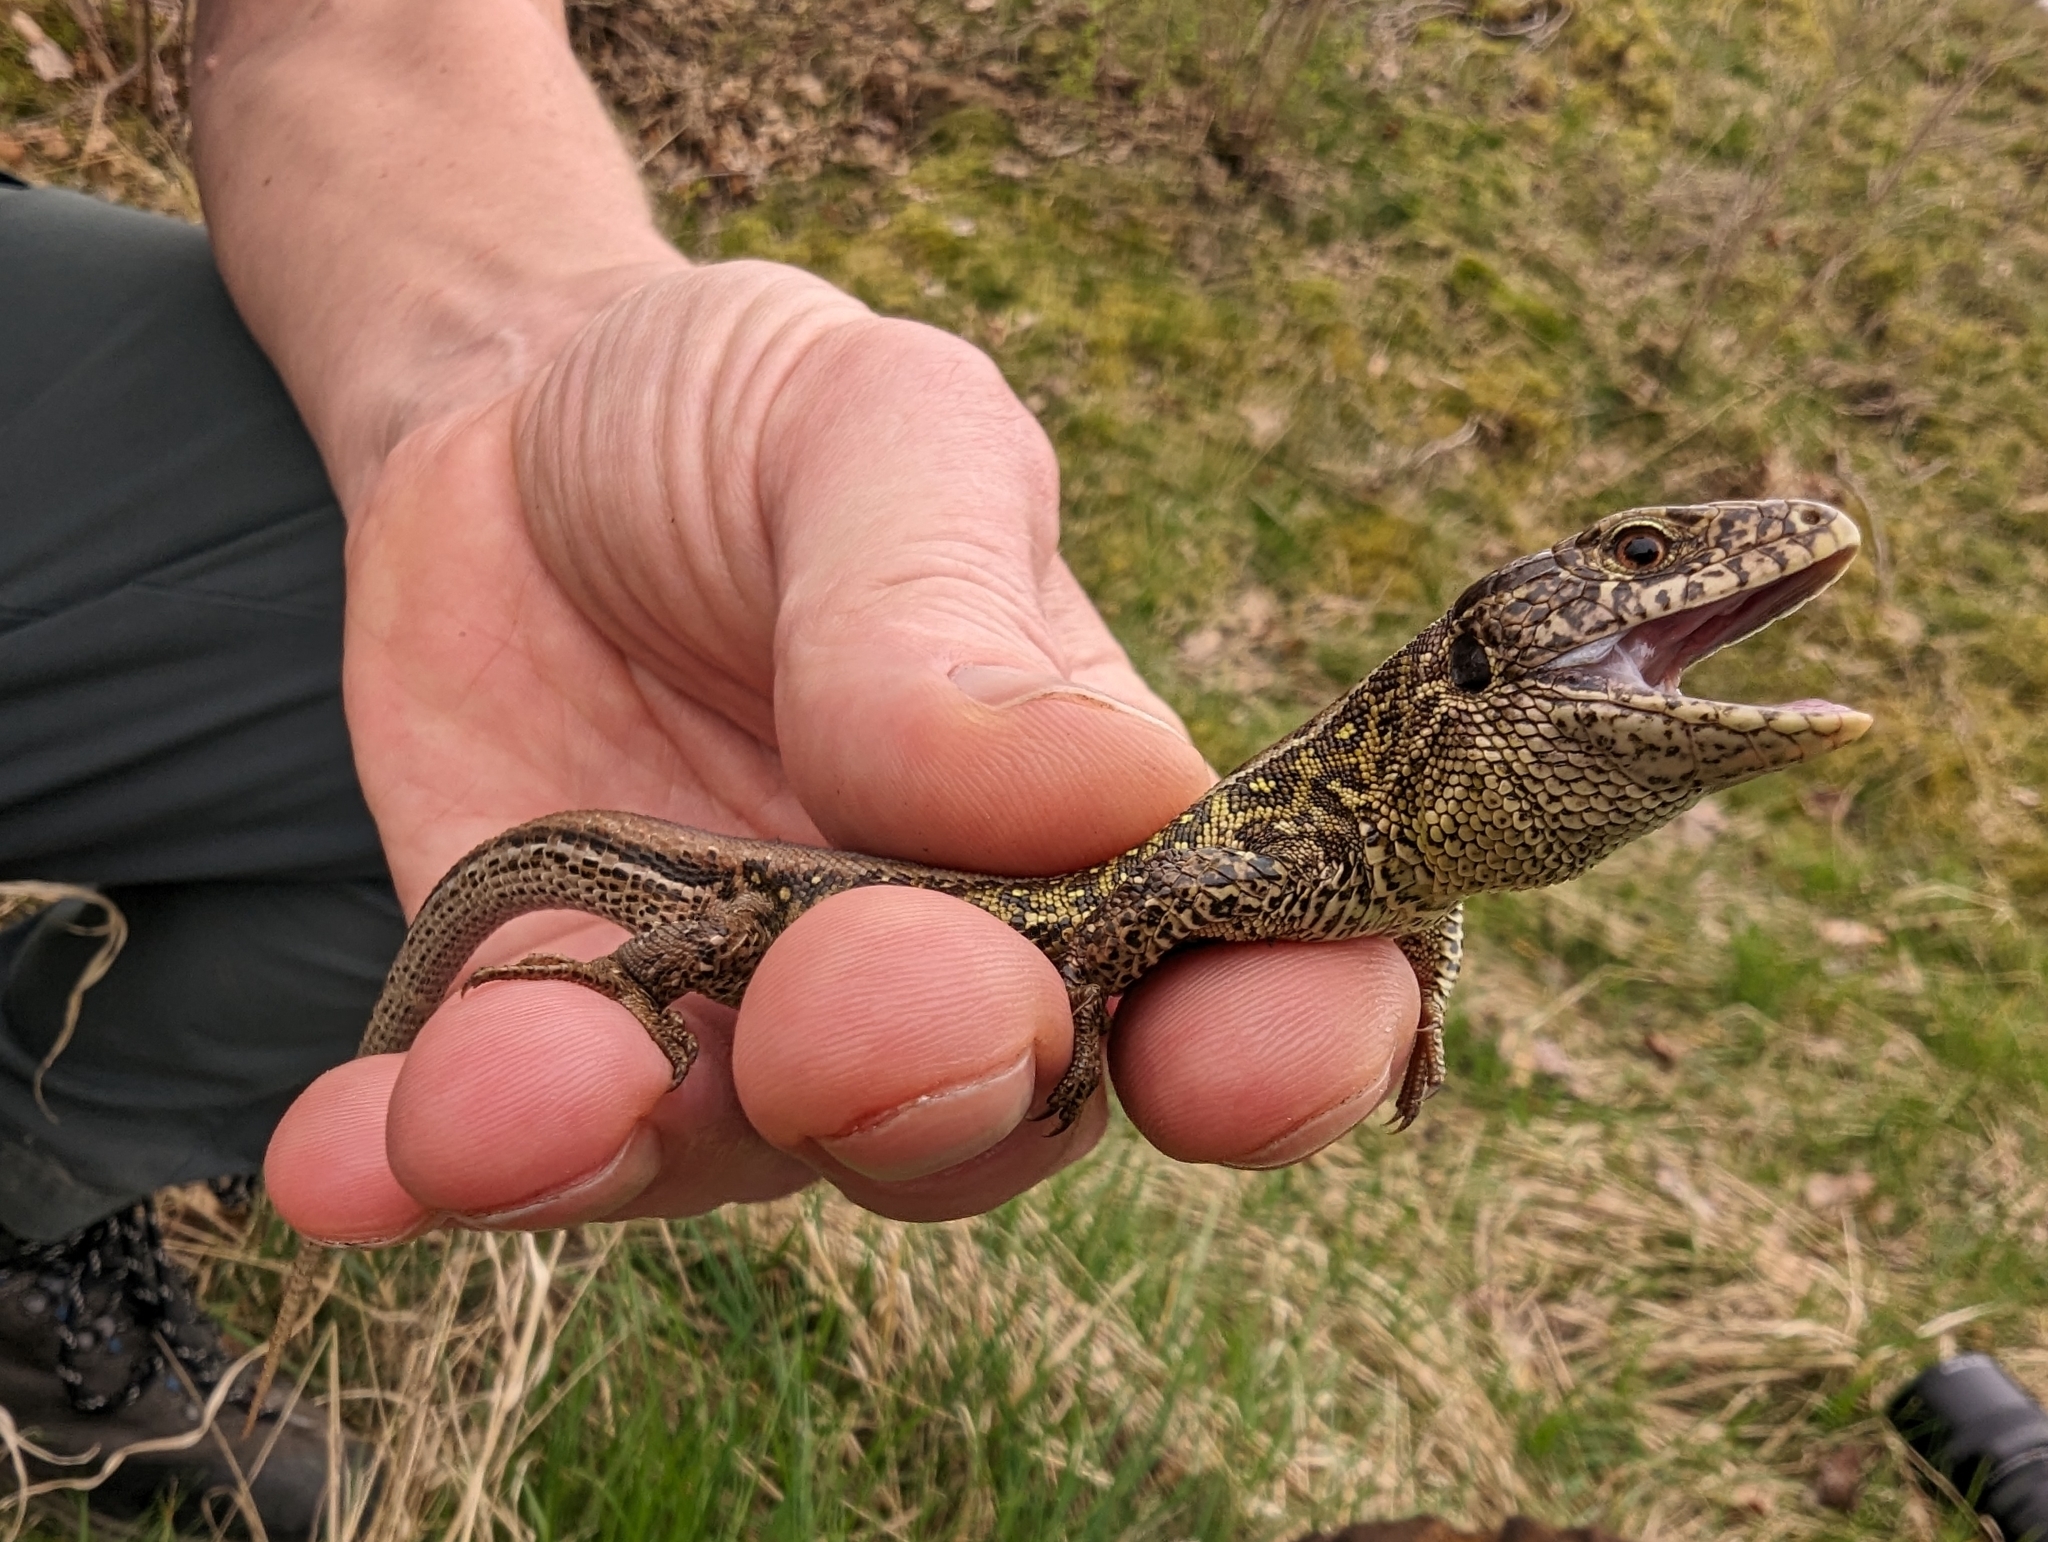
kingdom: Animalia
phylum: Chordata
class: Squamata
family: Lacertidae
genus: Lacerta
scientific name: Lacerta agilis
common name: Sand lizard
